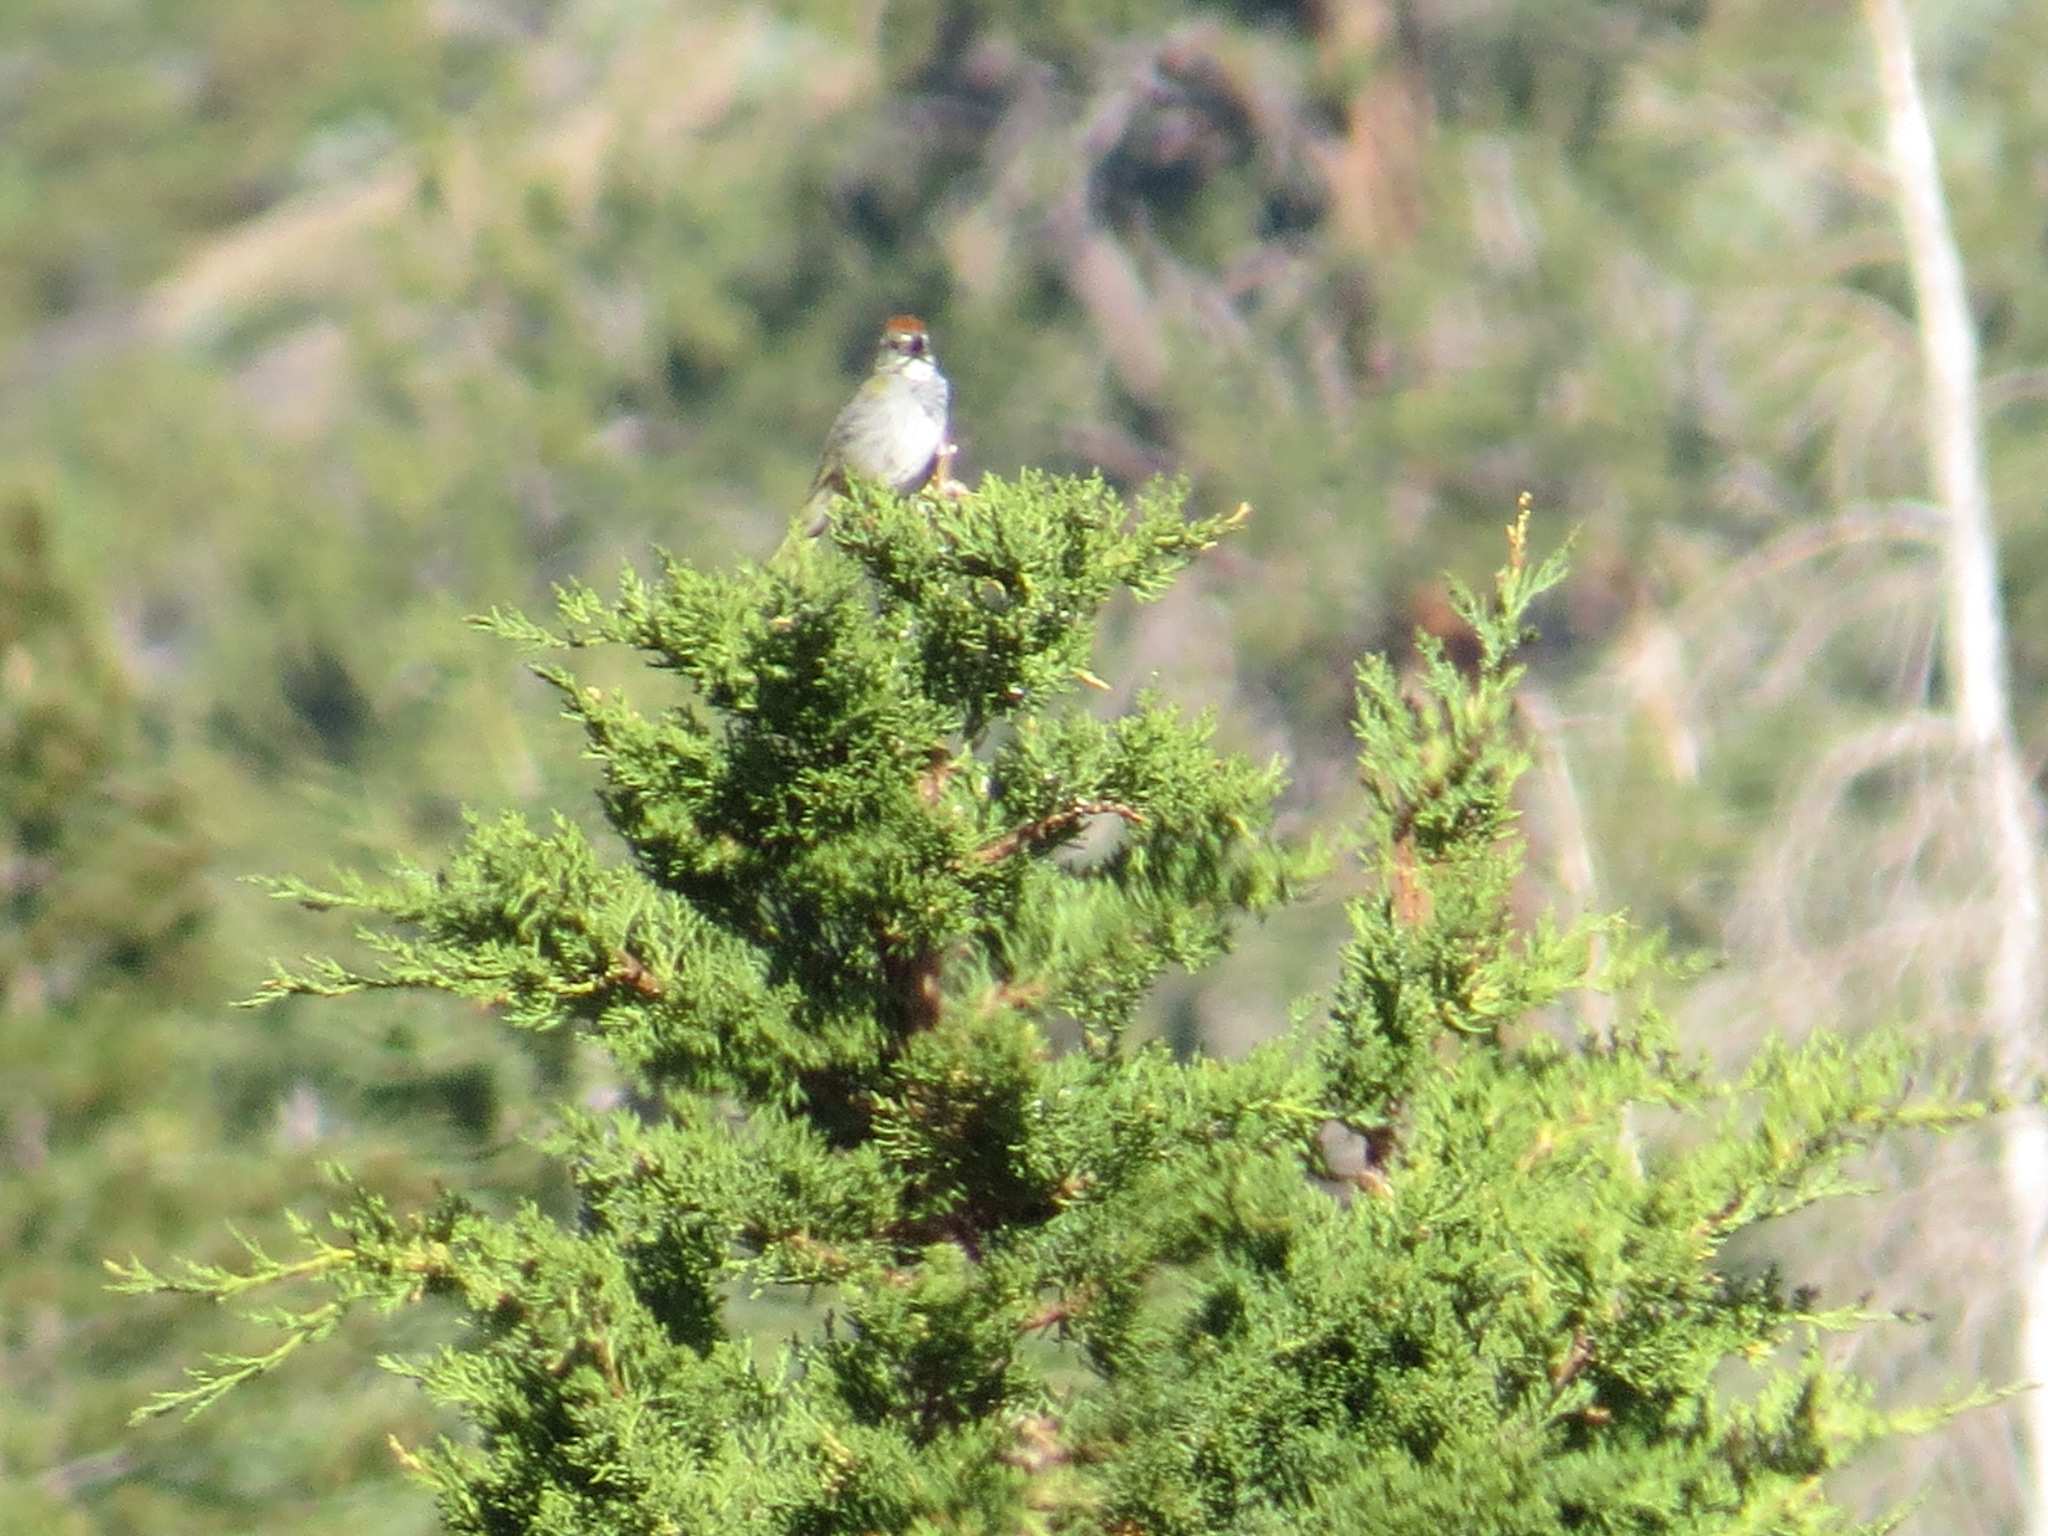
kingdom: Animalia
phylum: Chordata
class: Aves
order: Passeriformes
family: Passerellidae
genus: Pipilo
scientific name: Pipilo chlorurus
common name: Green-tailed towhee
